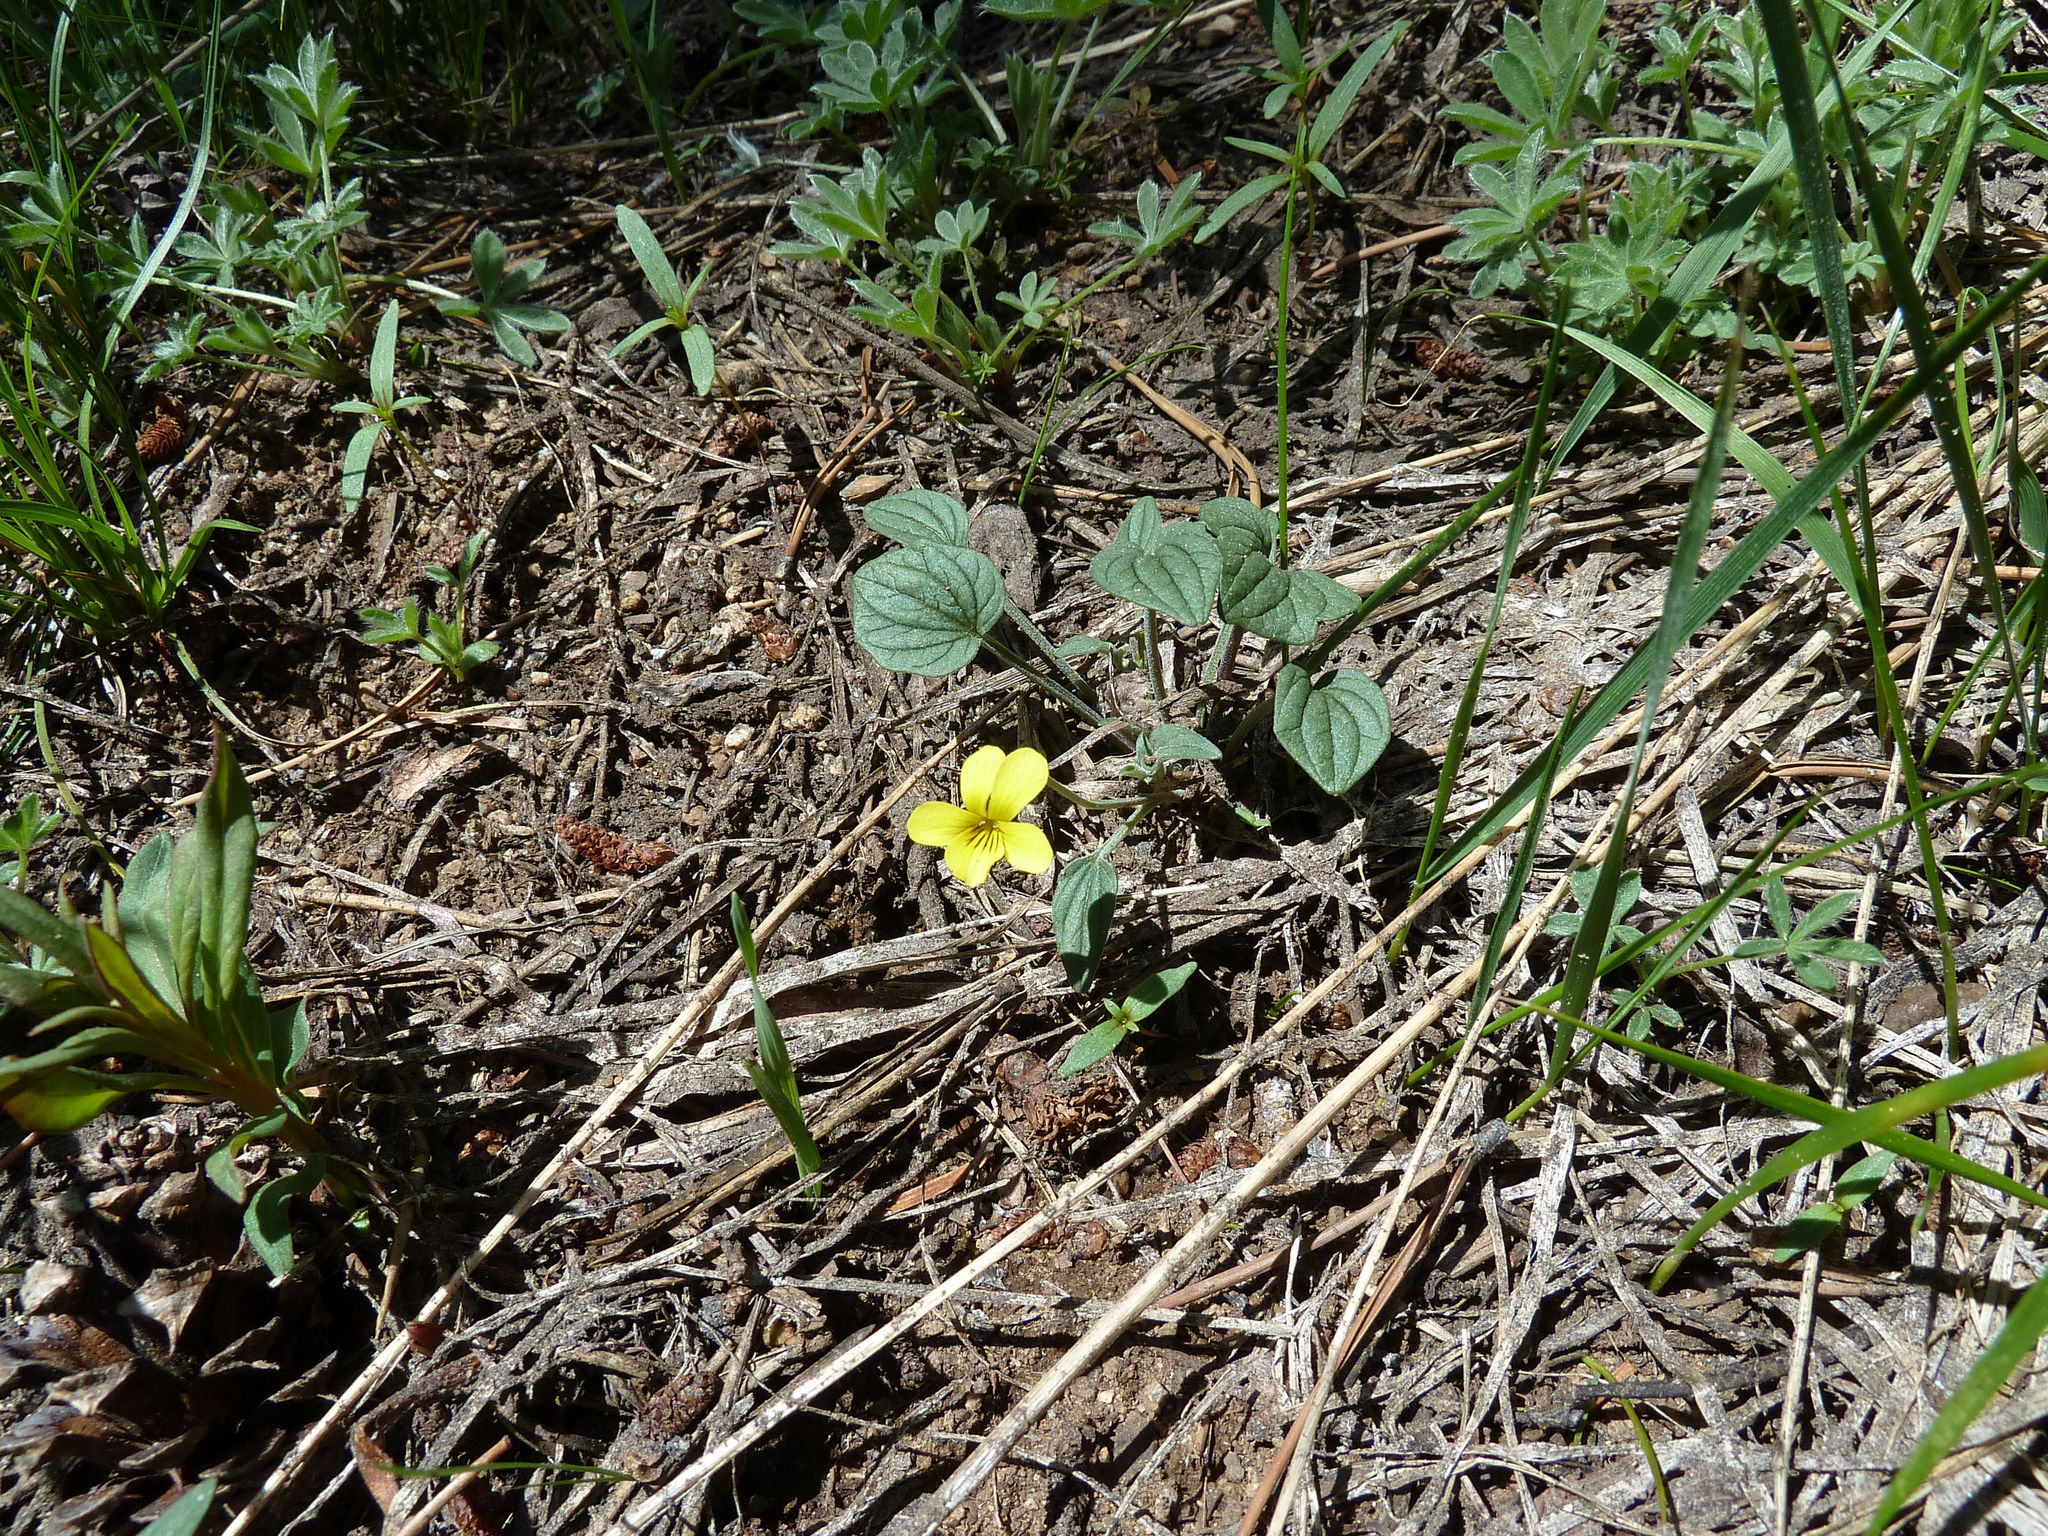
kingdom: Plantae
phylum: Tracheophyta
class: Magnoliopsida
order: Malpighiales
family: Violaceae
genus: Viola
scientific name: Viola purpurea
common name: Pine violet
